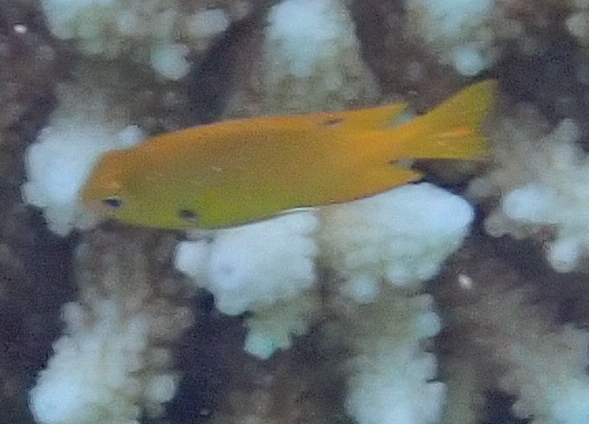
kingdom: Animalia
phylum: Chordata
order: Perciformes
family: Pomacentridae
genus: Pomacentrus
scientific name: Pomacentrus sulfureus
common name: Sulfur damsel
